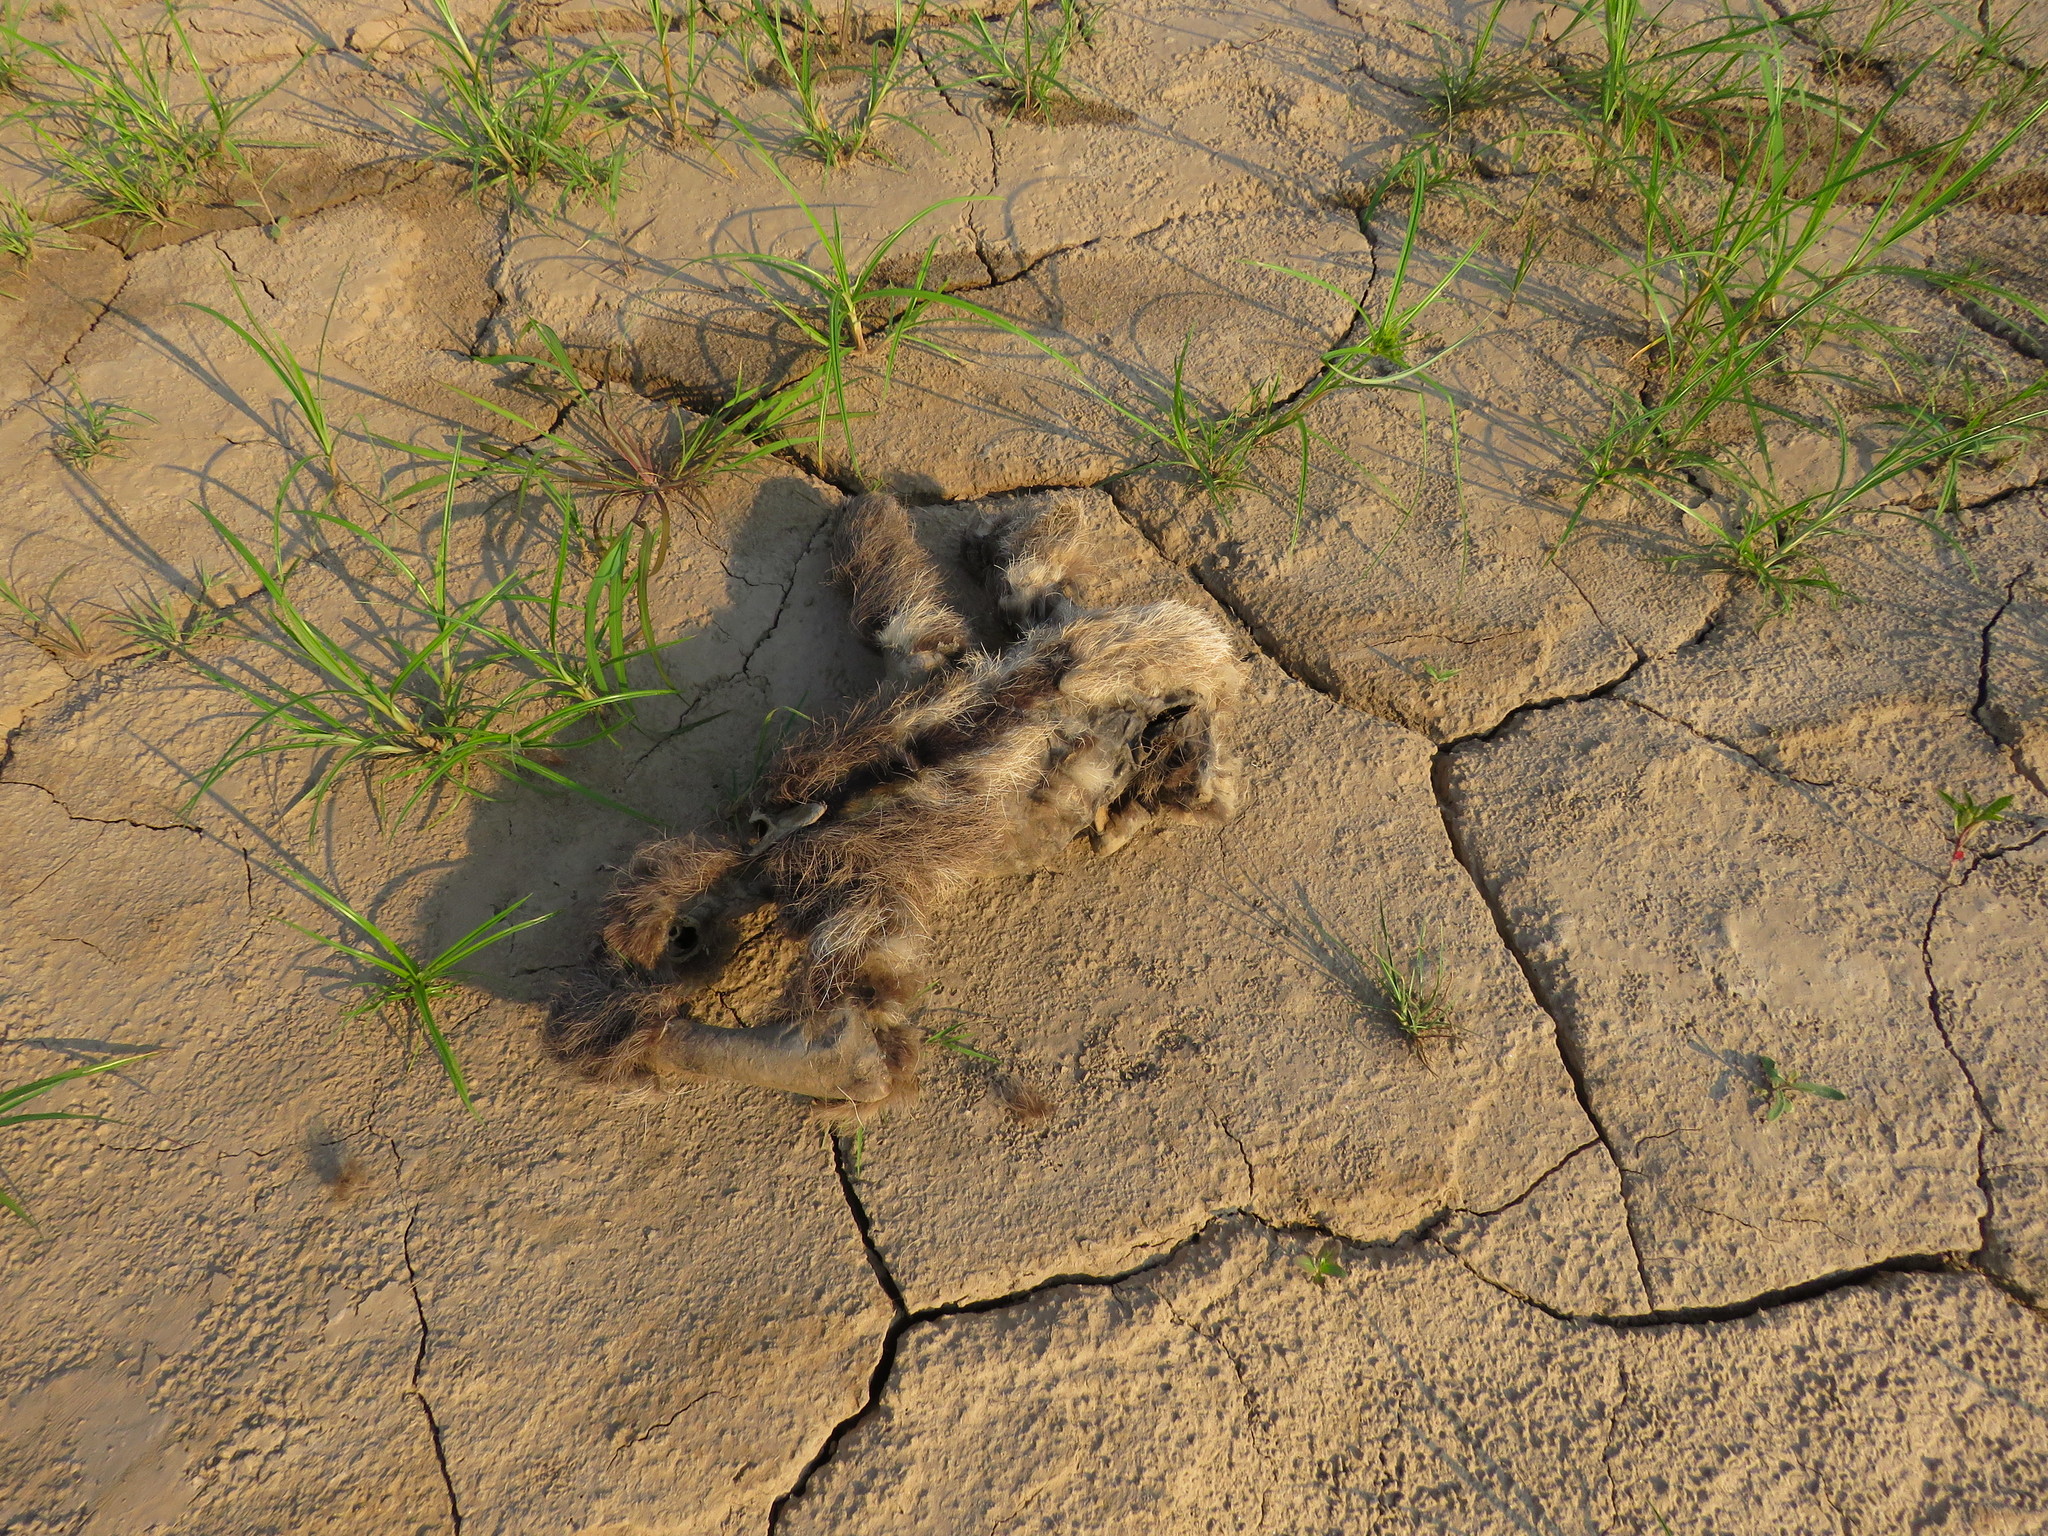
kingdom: Animalia
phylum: Chordata
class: Mammalia
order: Pilosa
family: Bradypodidae
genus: Bradypus
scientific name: Bradypus variegatus
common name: Brown-throated three-toed sloth
